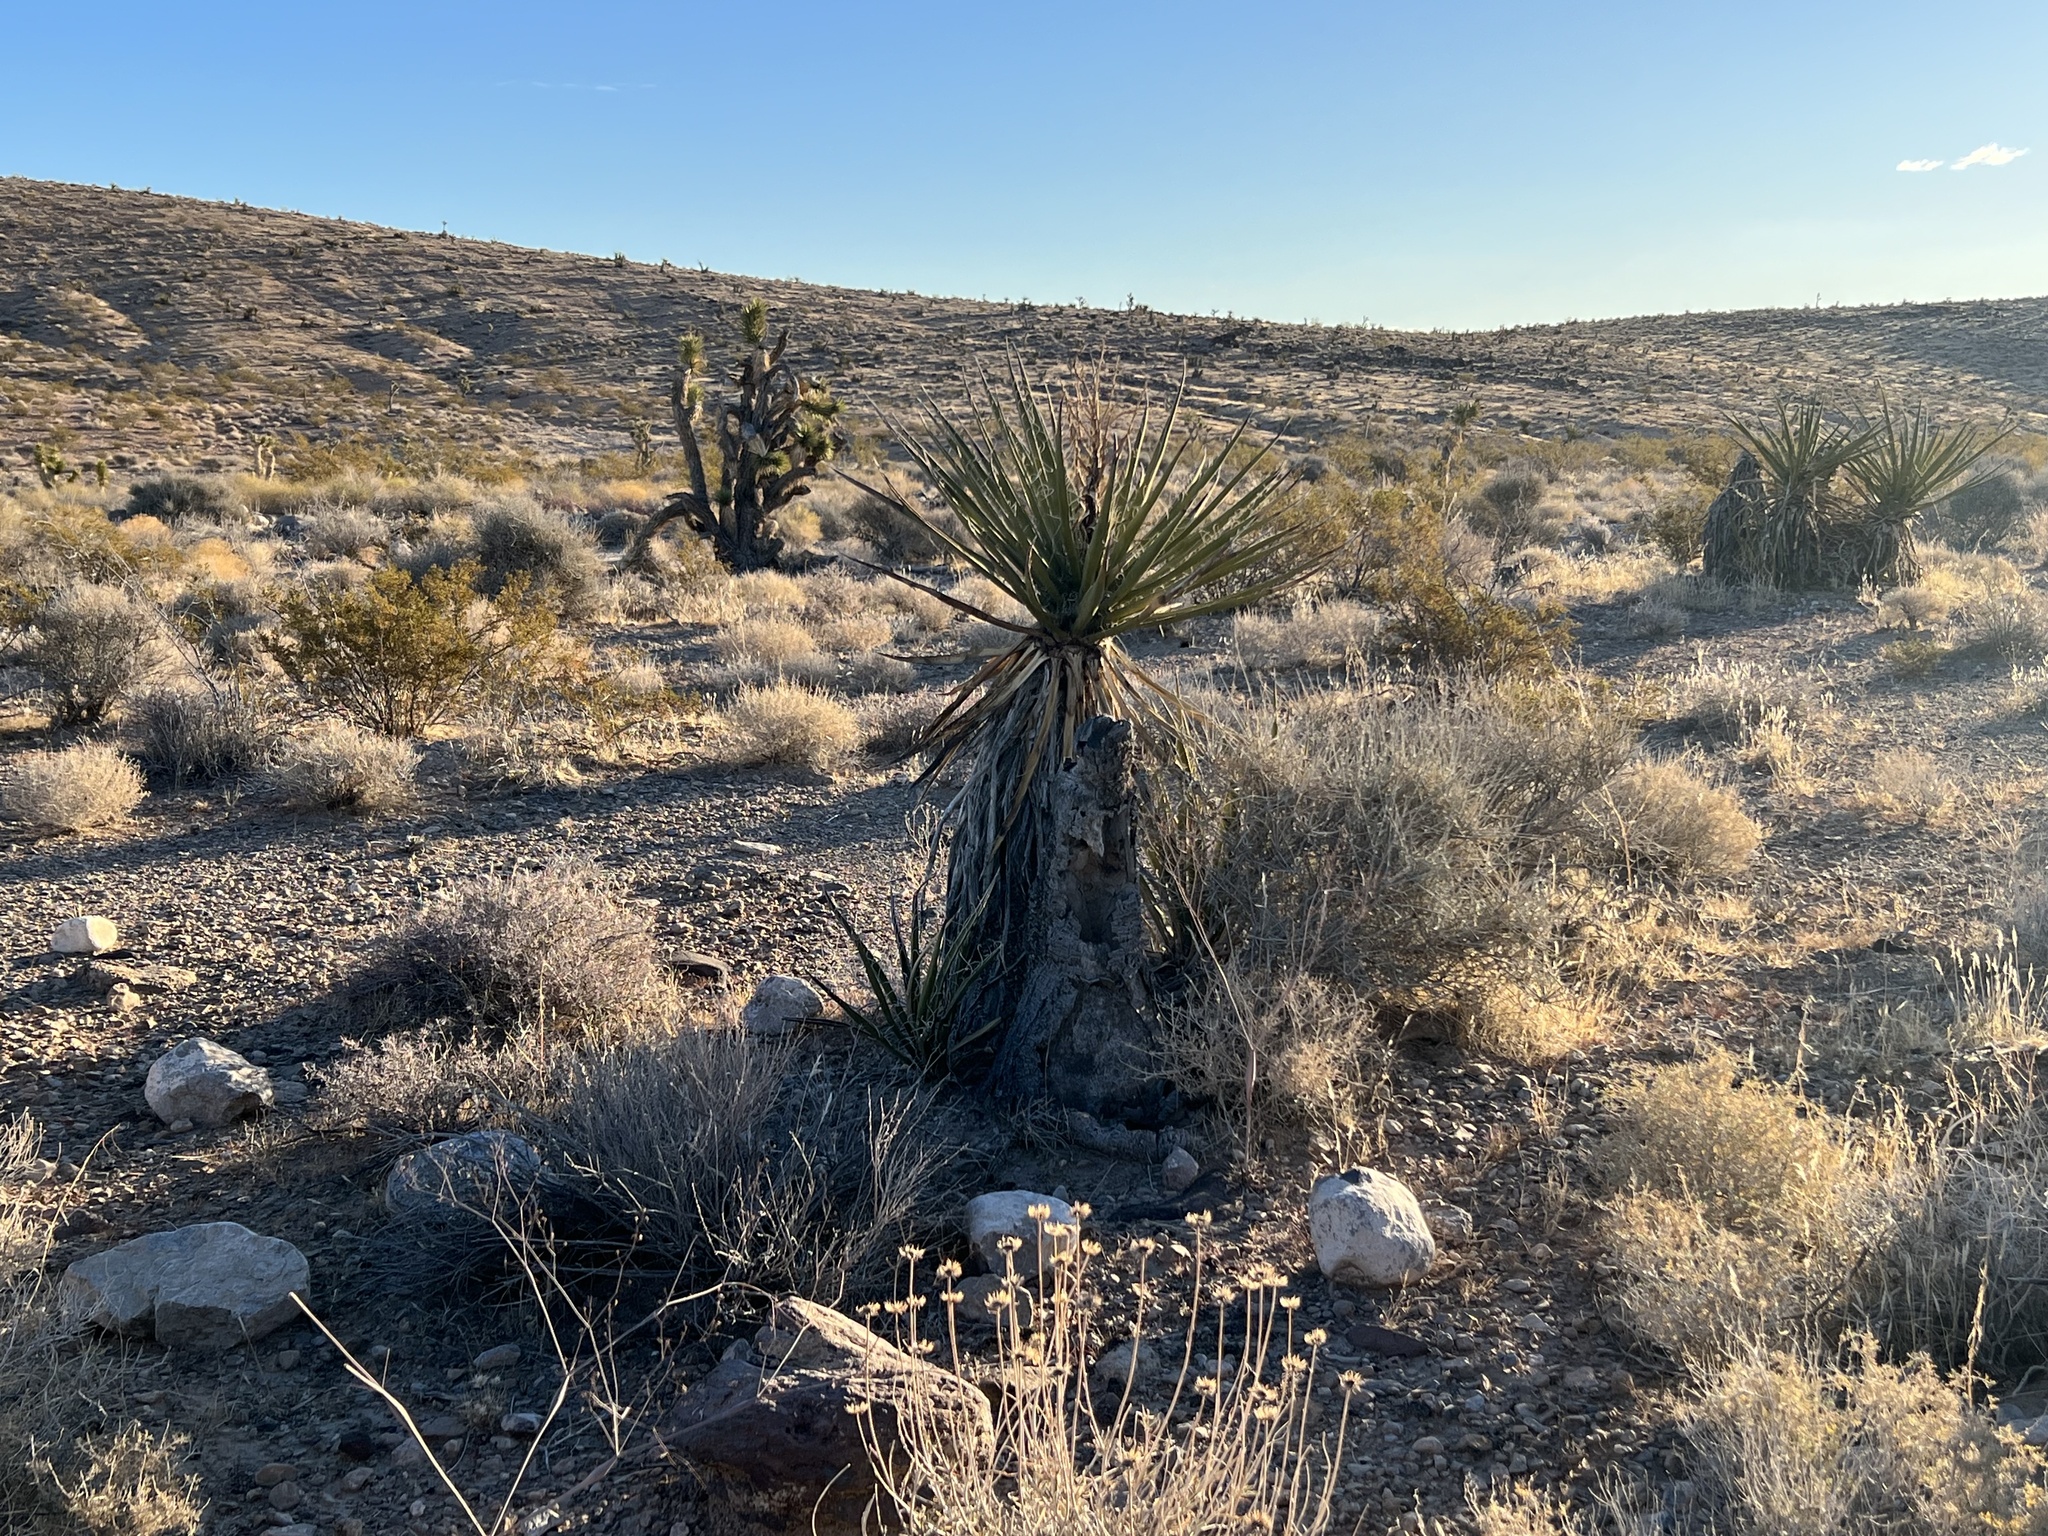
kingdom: Plantae
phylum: Tracheophyta
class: Liliopsida
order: Asparagales
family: Asparagaceae
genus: Yucca
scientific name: Yucca schidigera
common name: Mojave yucca
